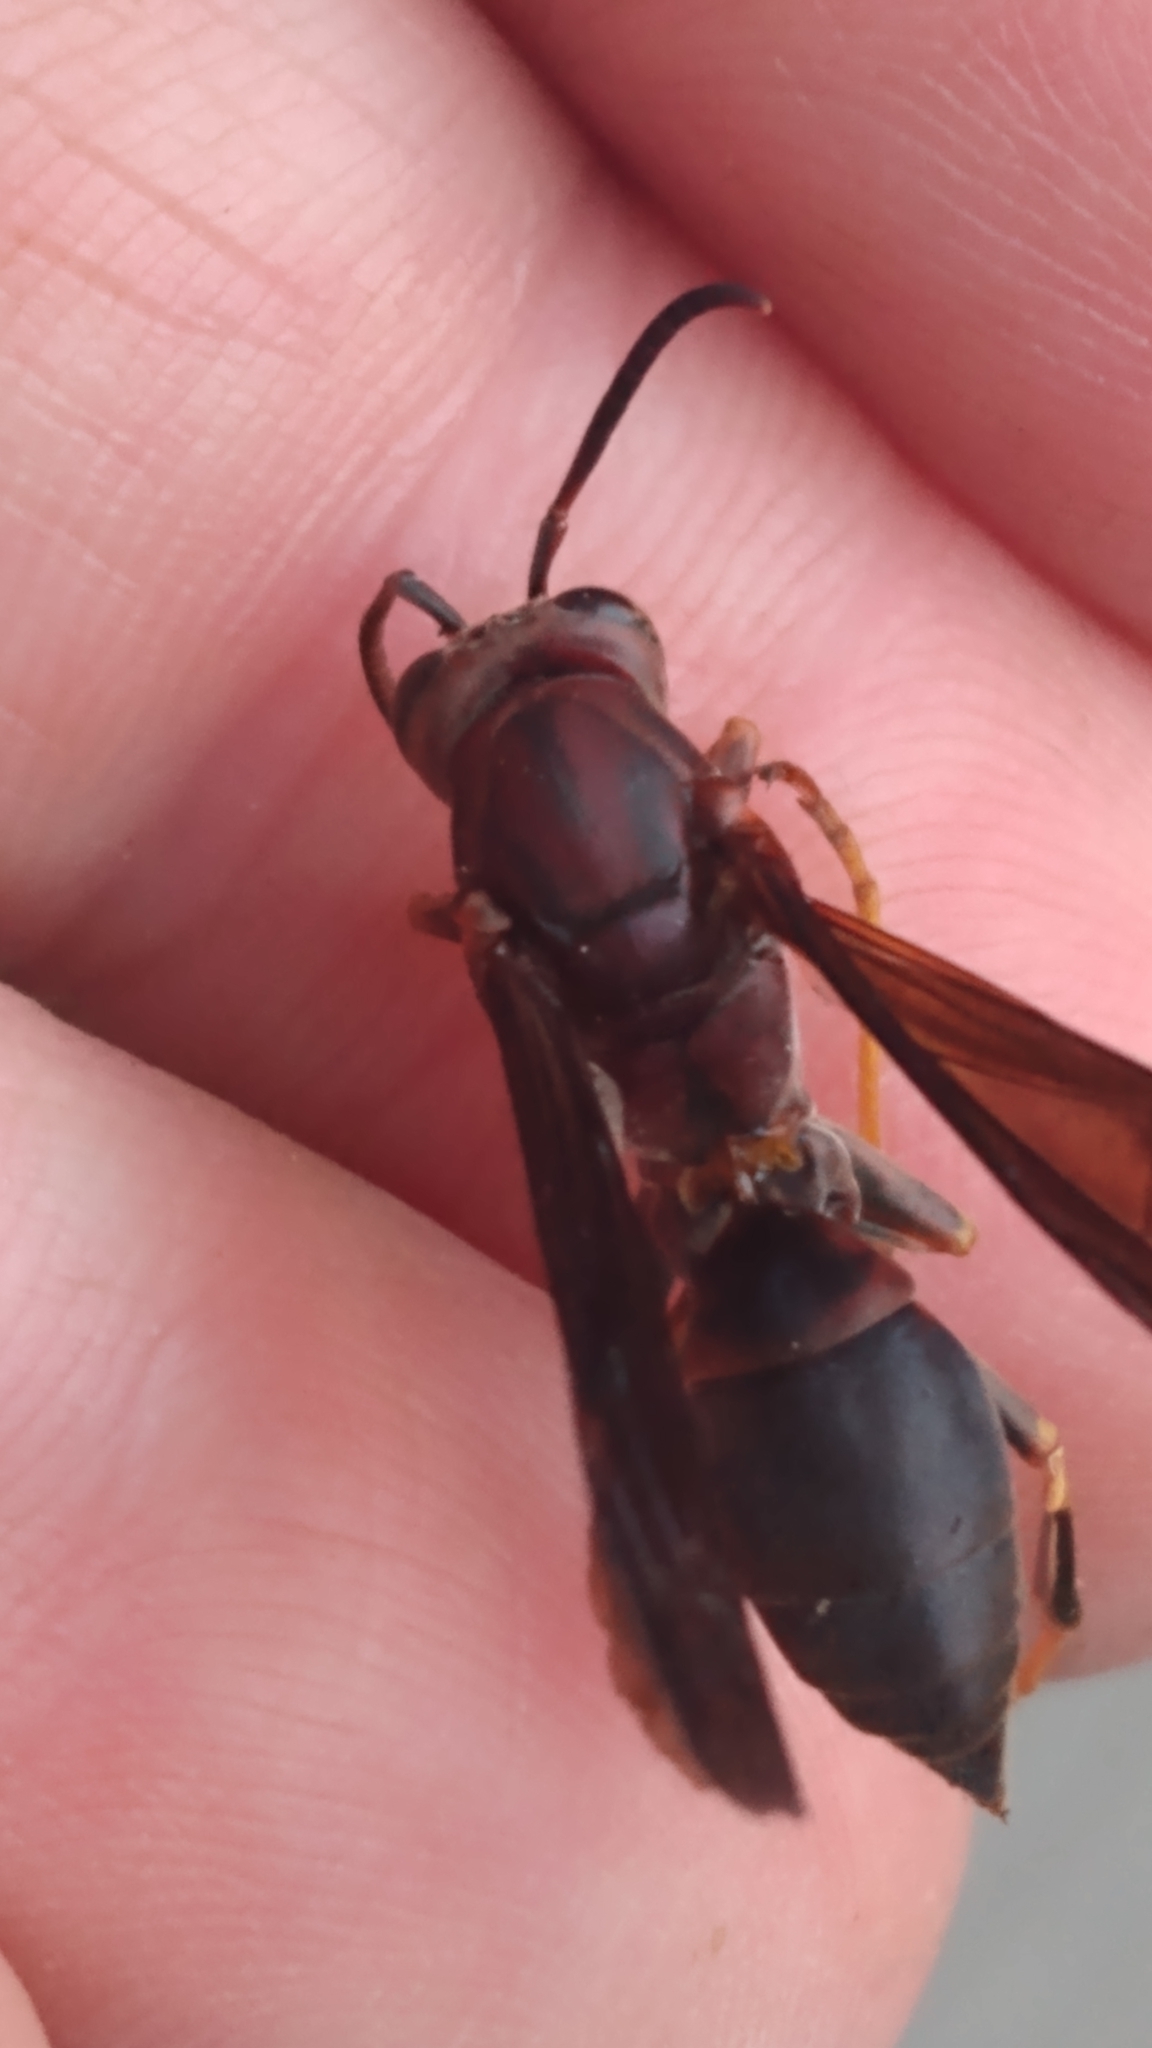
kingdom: Animalia
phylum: Arthropoda
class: Insecta
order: Hymenoptera
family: Eumenidae
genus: Polistes
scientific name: Polistes metricus
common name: Metric paper wasp
